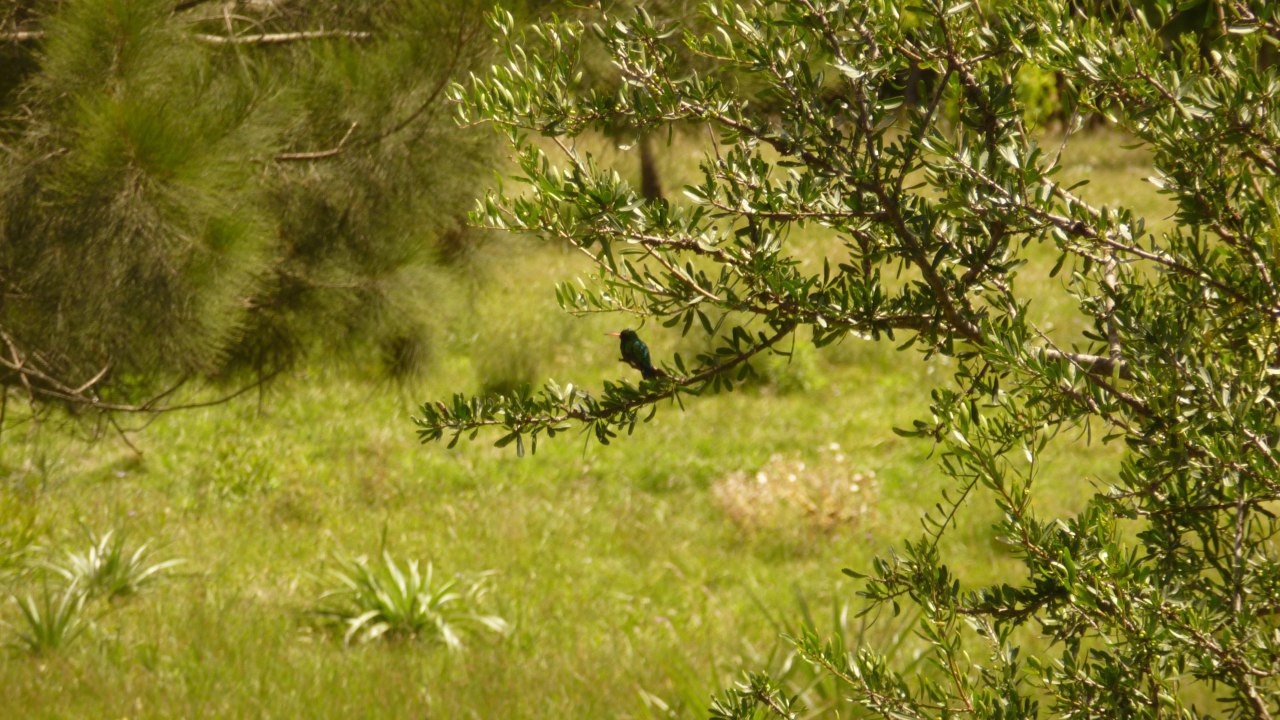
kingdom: Animalia
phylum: Chordata
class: Aves
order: Apodiformes
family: Trochilidae
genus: Chlorostilbon
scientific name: Chlorostilbon lucidus
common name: Glittering-bellied emerald
